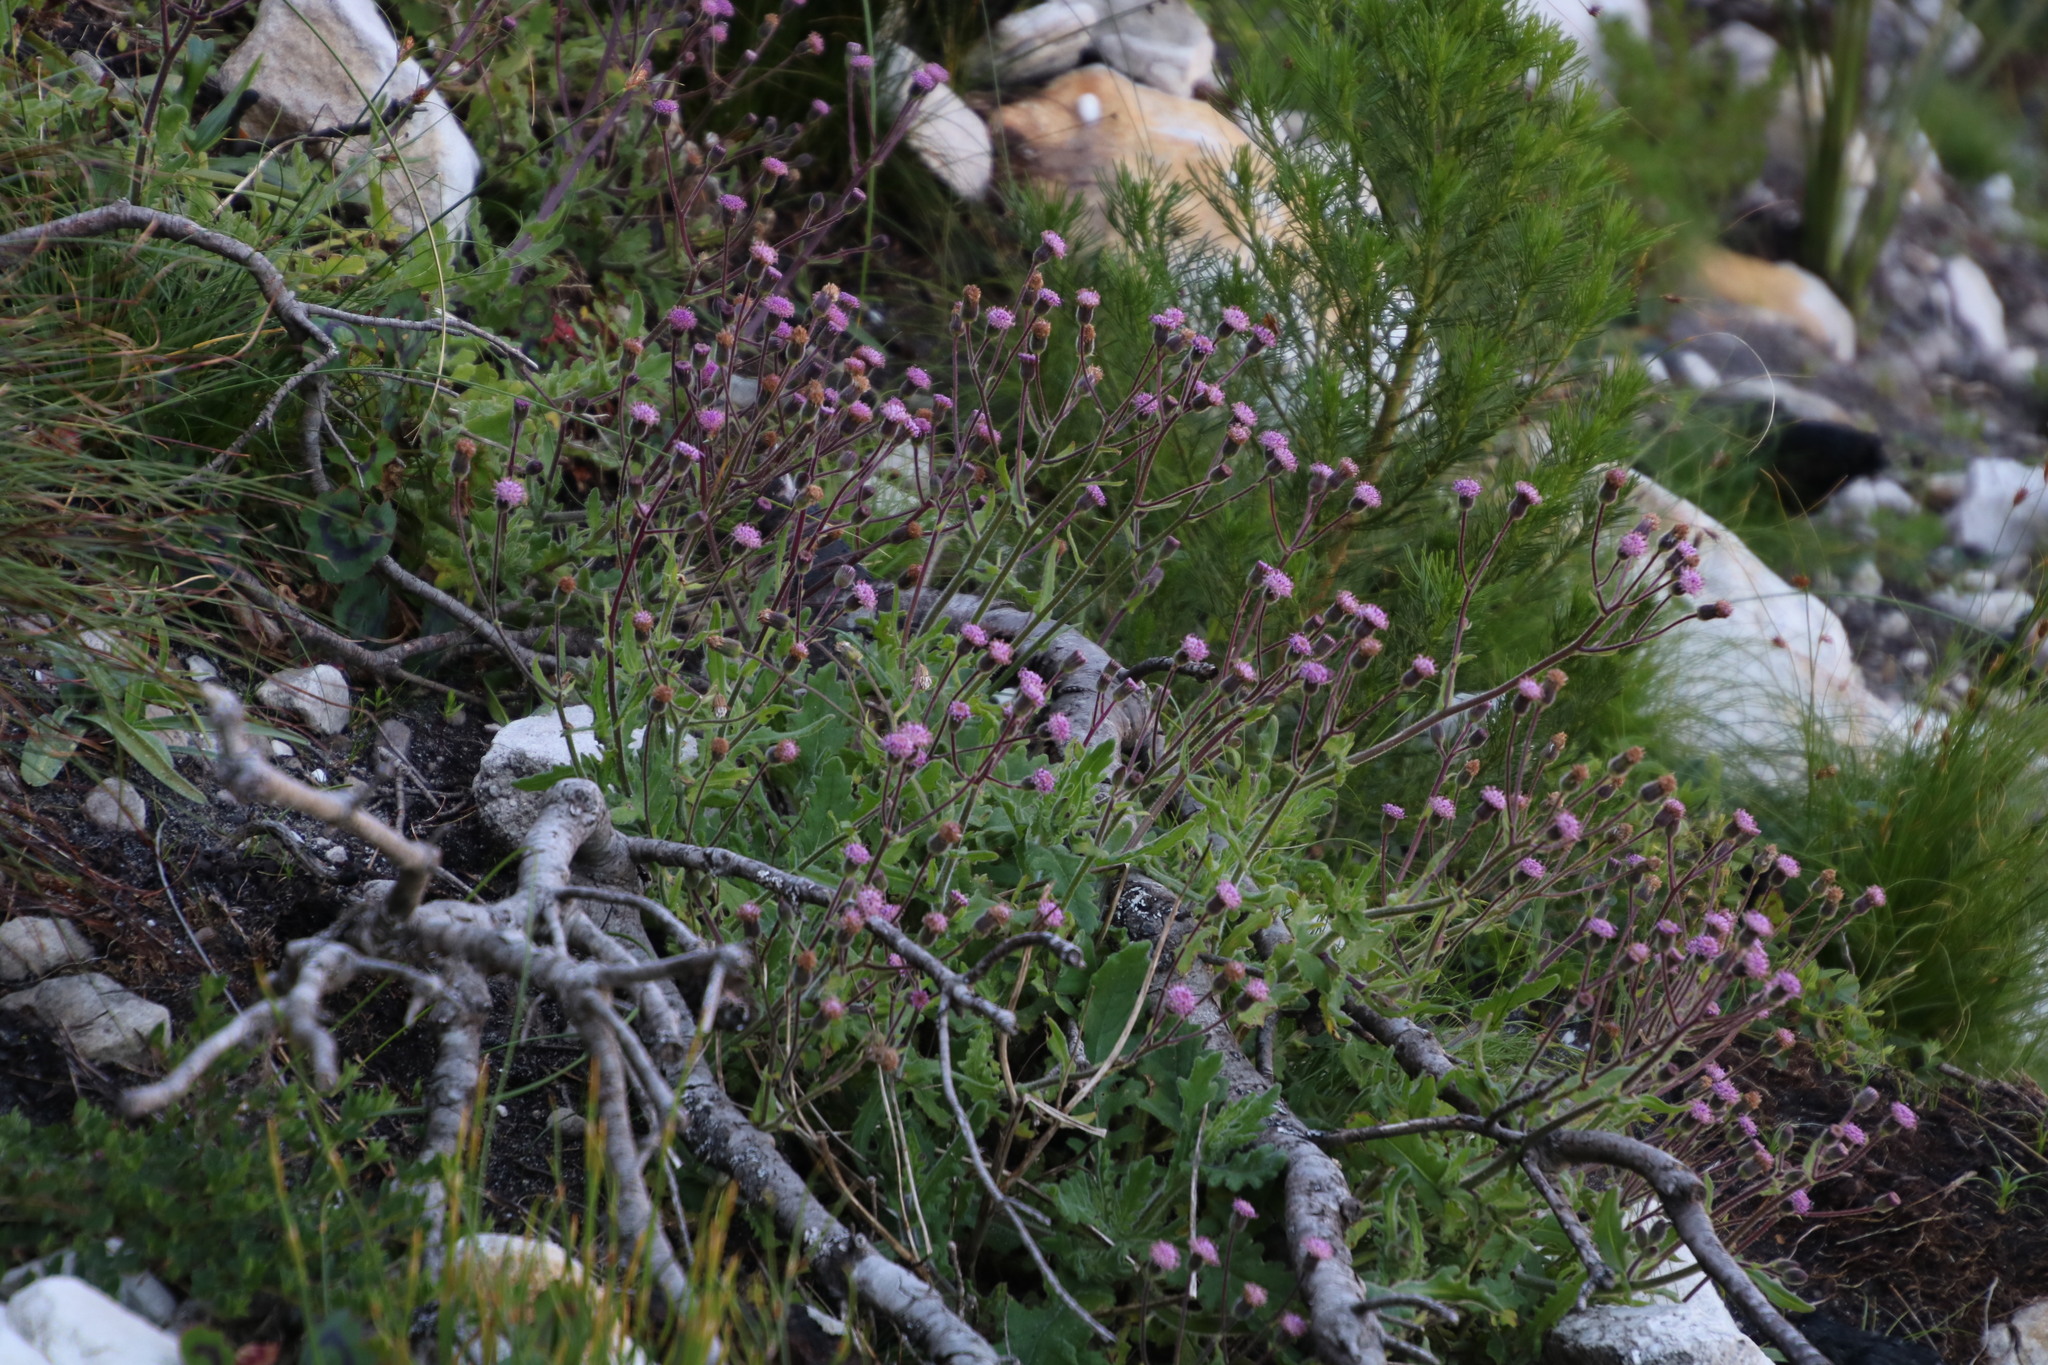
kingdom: Plantae
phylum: Tracheophyta
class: Magnoliopsida
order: Asterales
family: Asteraceae
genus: Senecio
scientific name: Senecio purpureus
